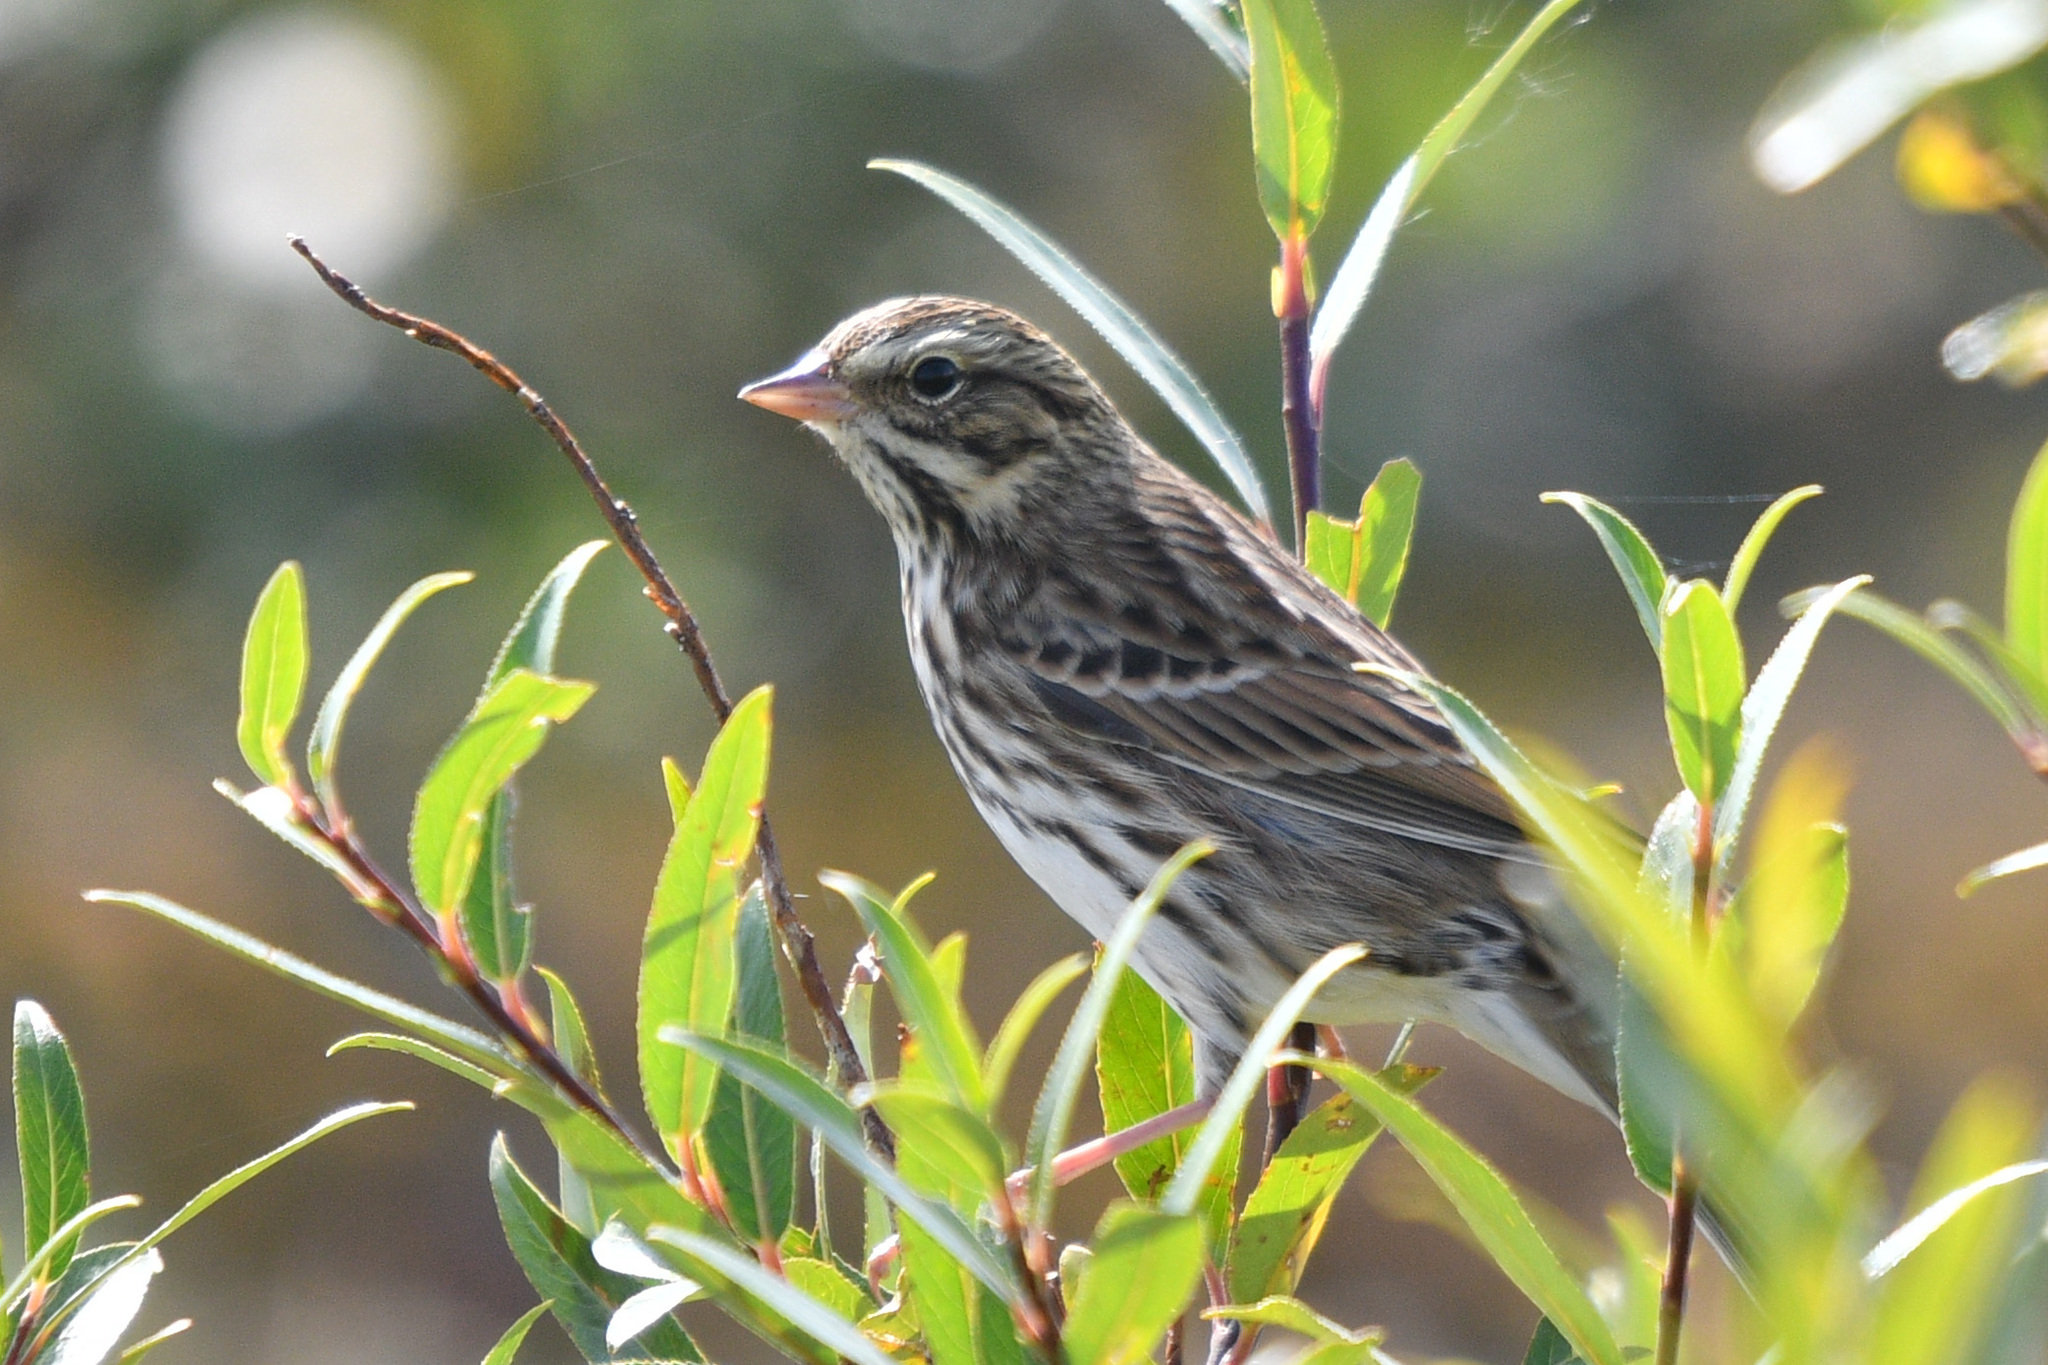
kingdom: Animalia
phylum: Chordata
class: Aves
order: Passeriformes
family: Passerellidae
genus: Passerculus
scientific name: Passerculus sandwichensis
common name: Savannah sparrow
